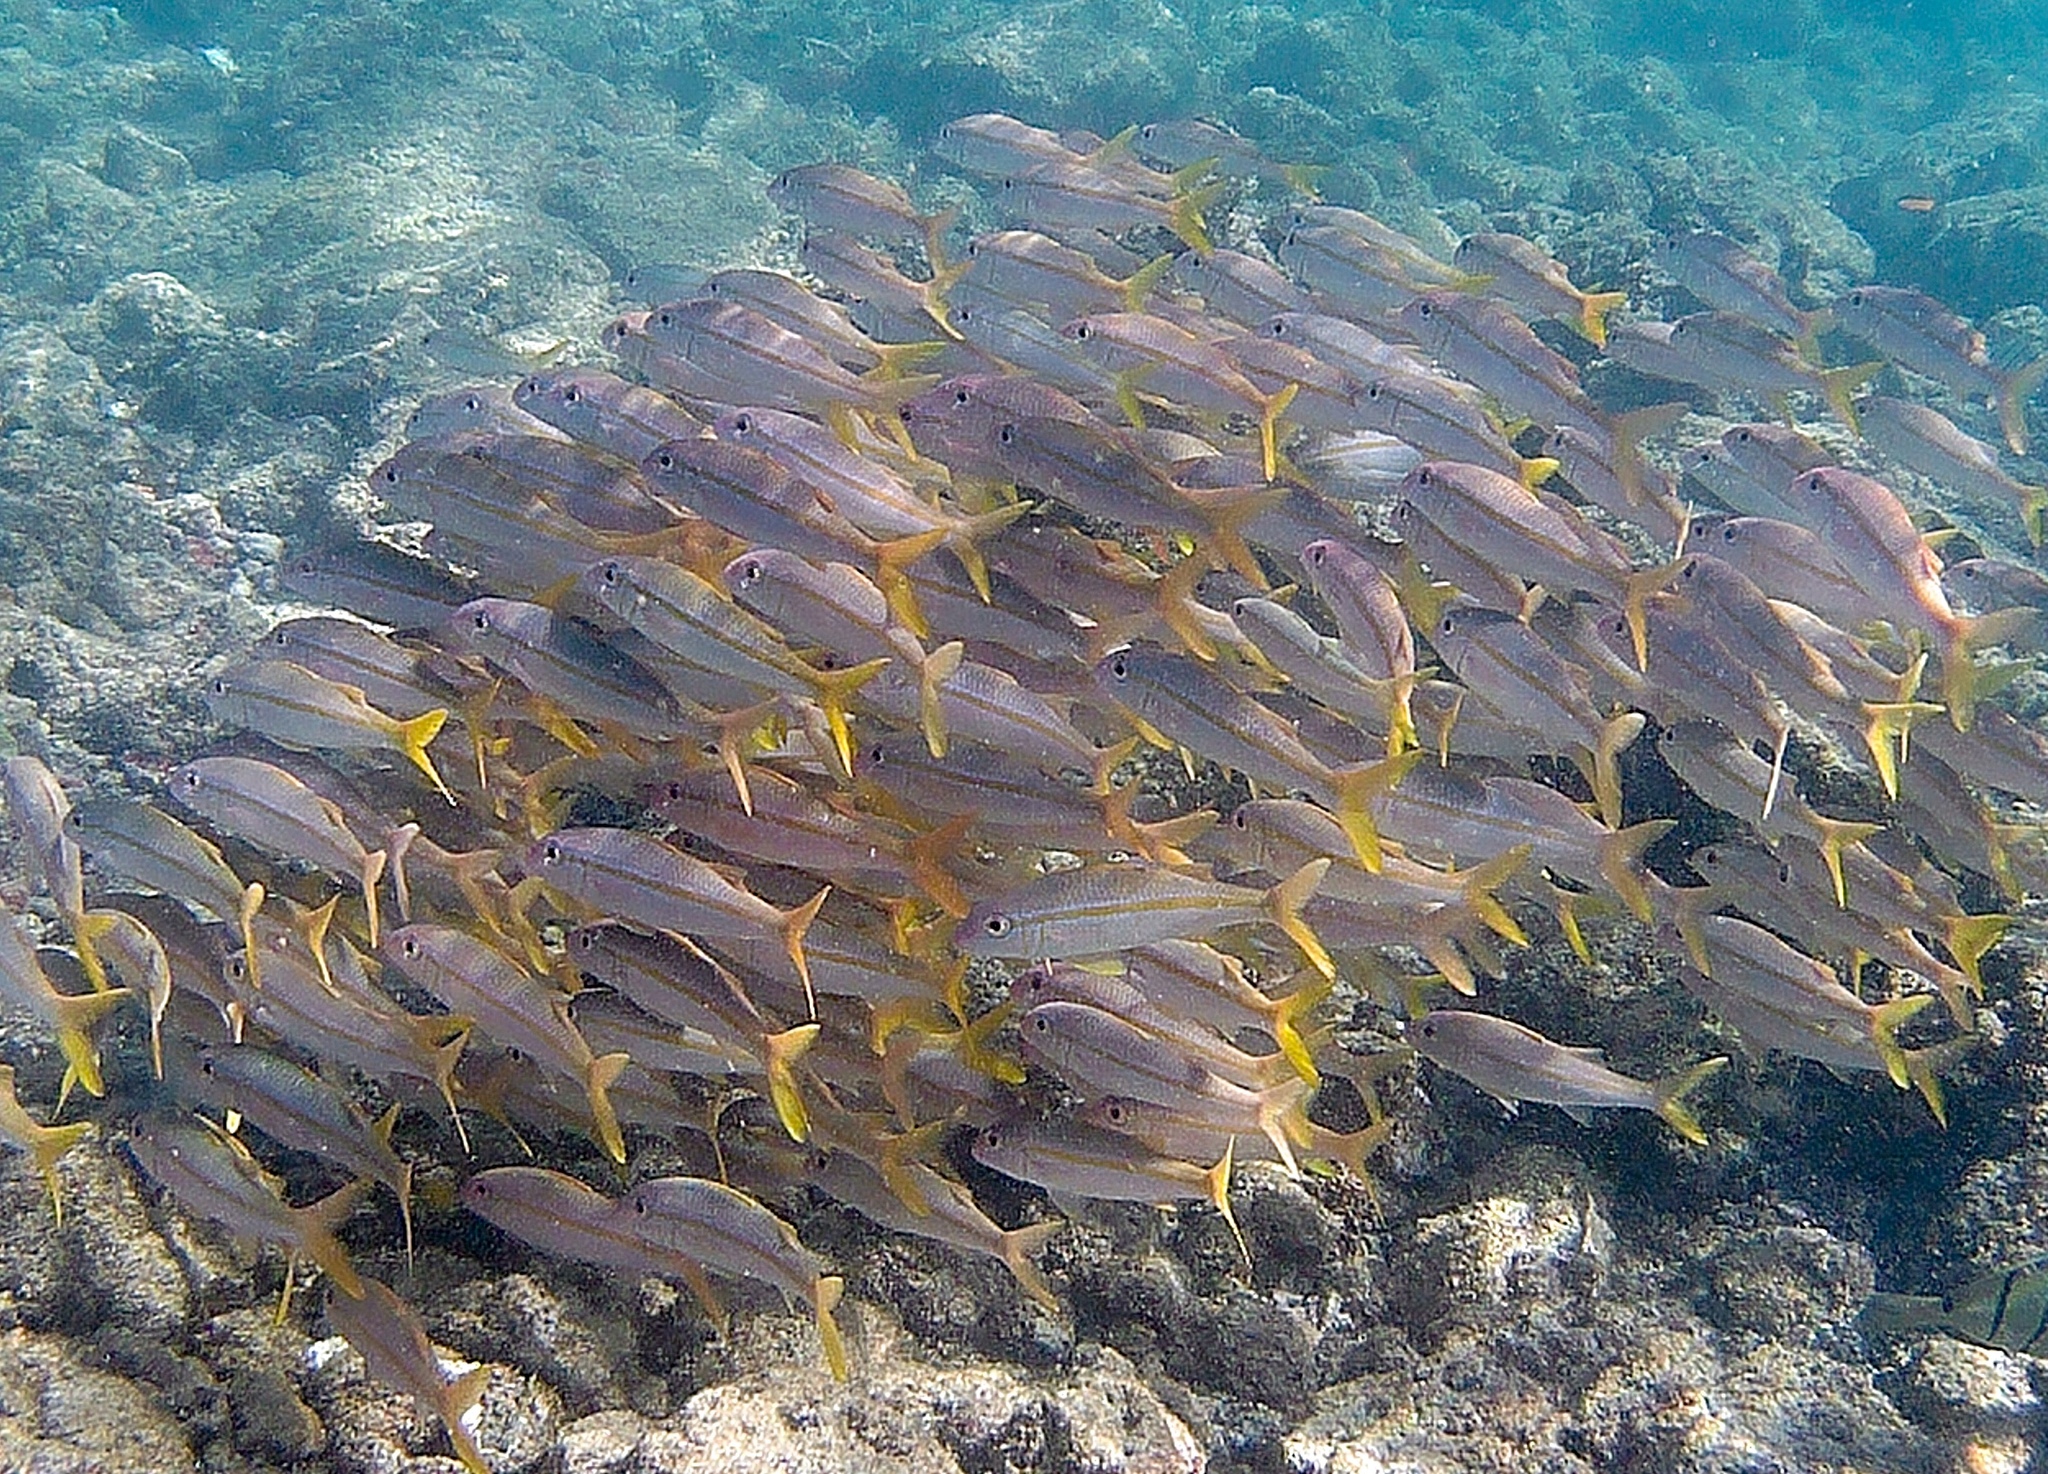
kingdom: Animalia
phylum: Chordata
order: Perciformes
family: Mullidae
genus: Mulloidichthys
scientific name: Mulloidichthys vanicolensis
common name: Yellowfin goatfish
